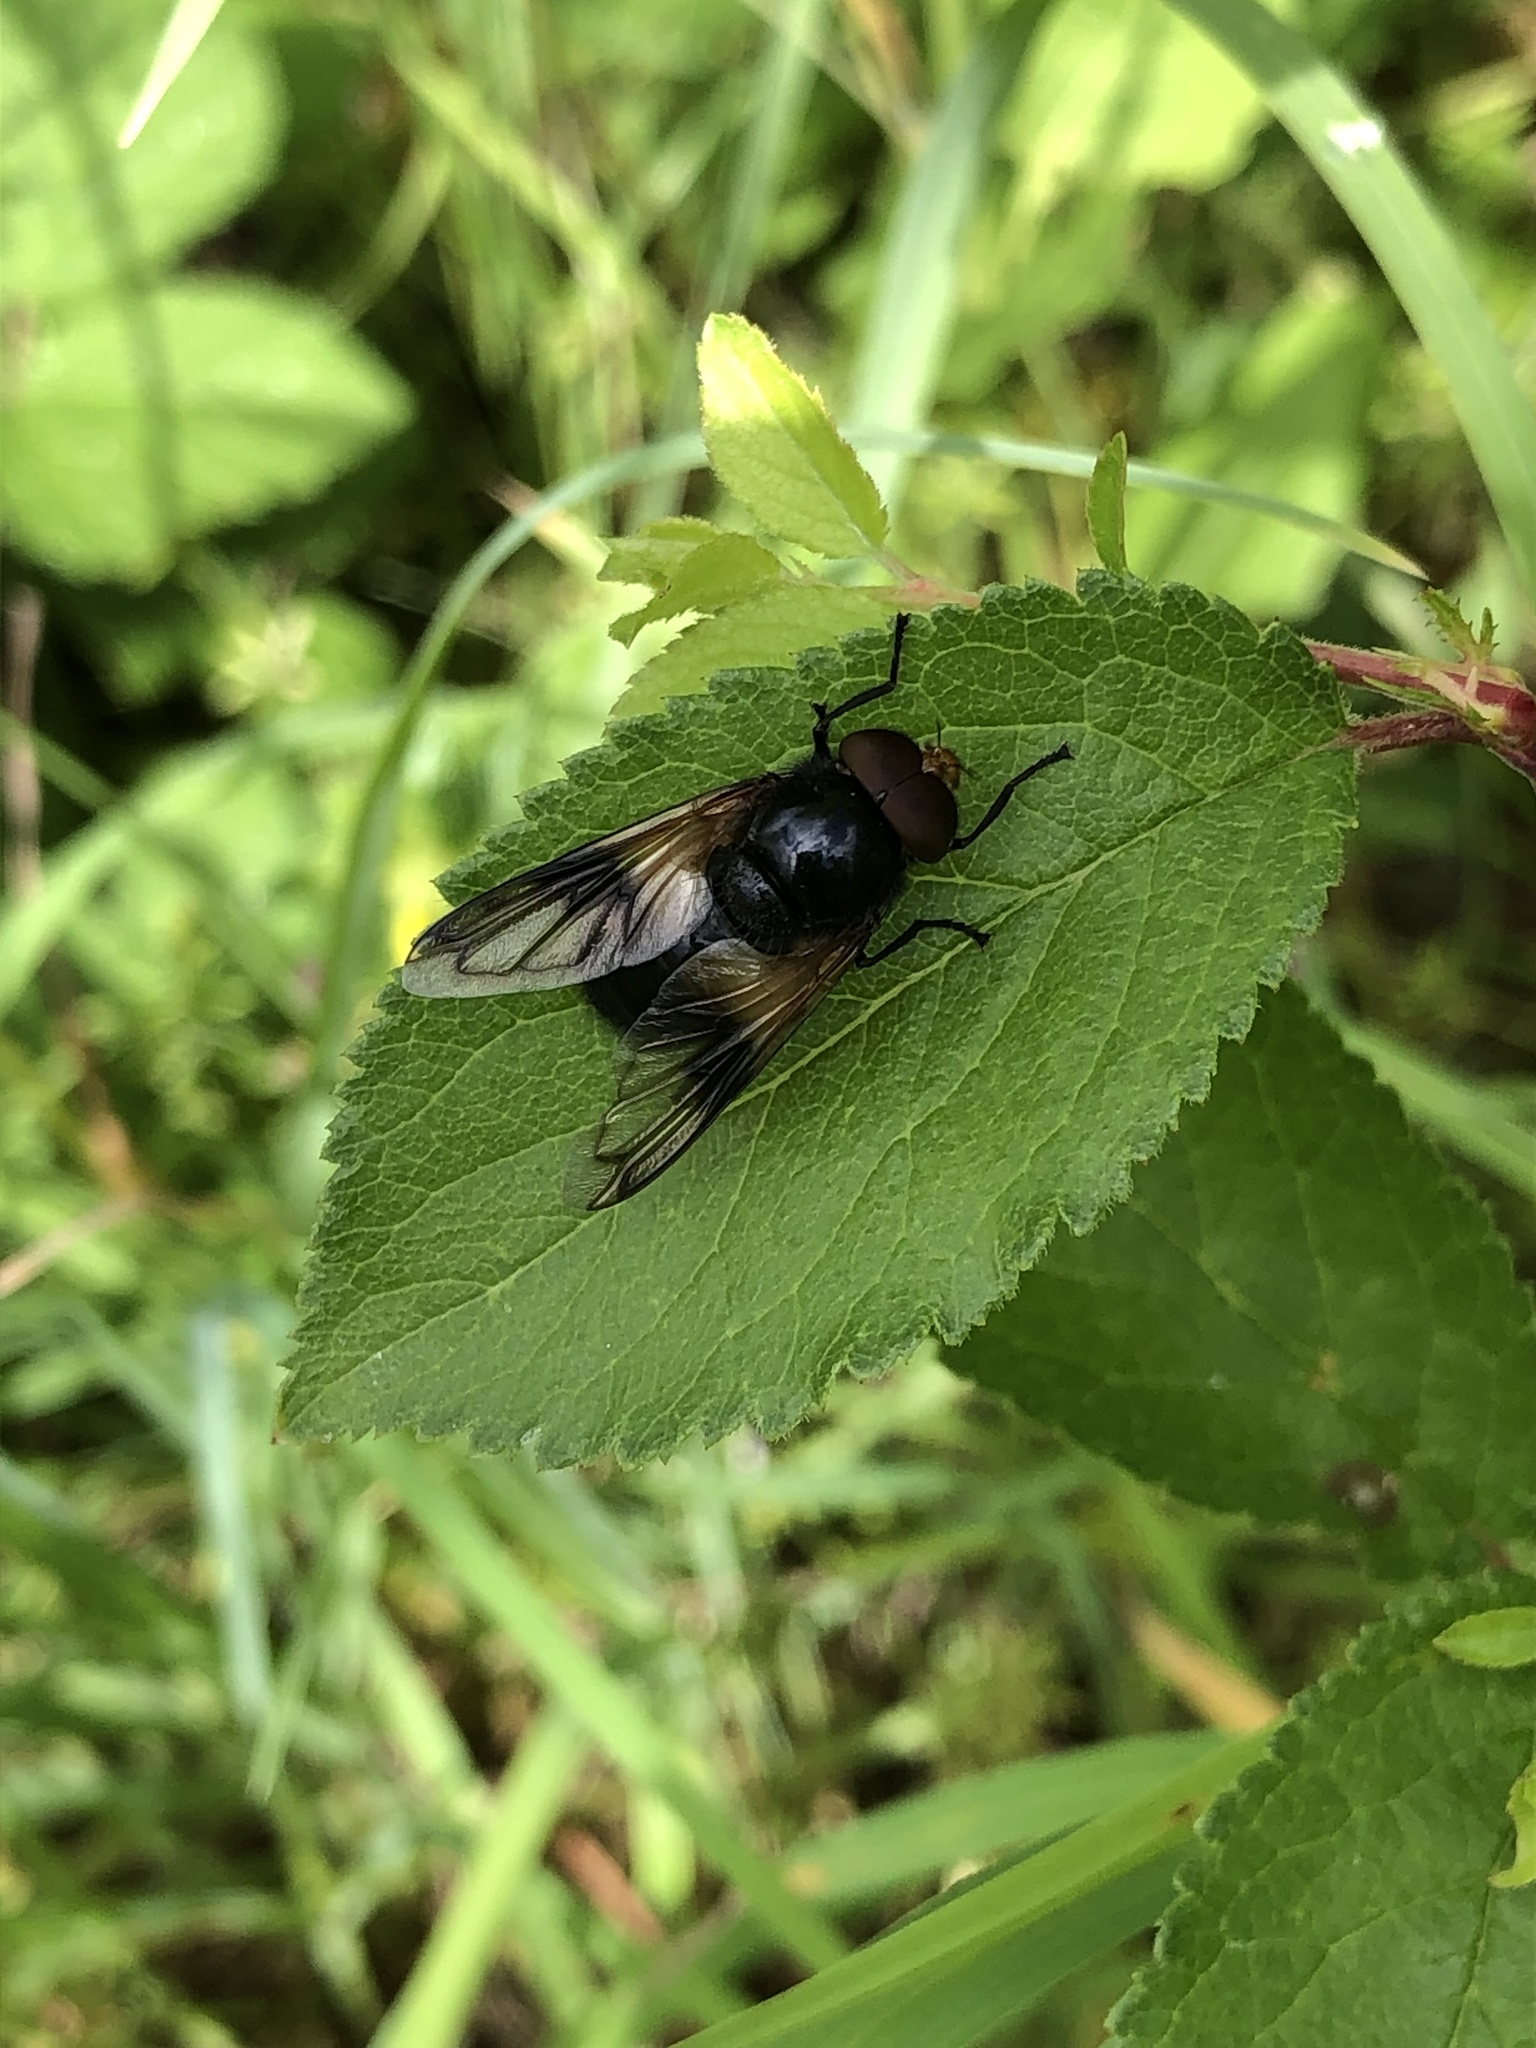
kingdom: Animalia
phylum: Arthropoda
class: Insecta
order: Diptera
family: Syrphidae
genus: Volucella
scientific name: Volucella pellucens
